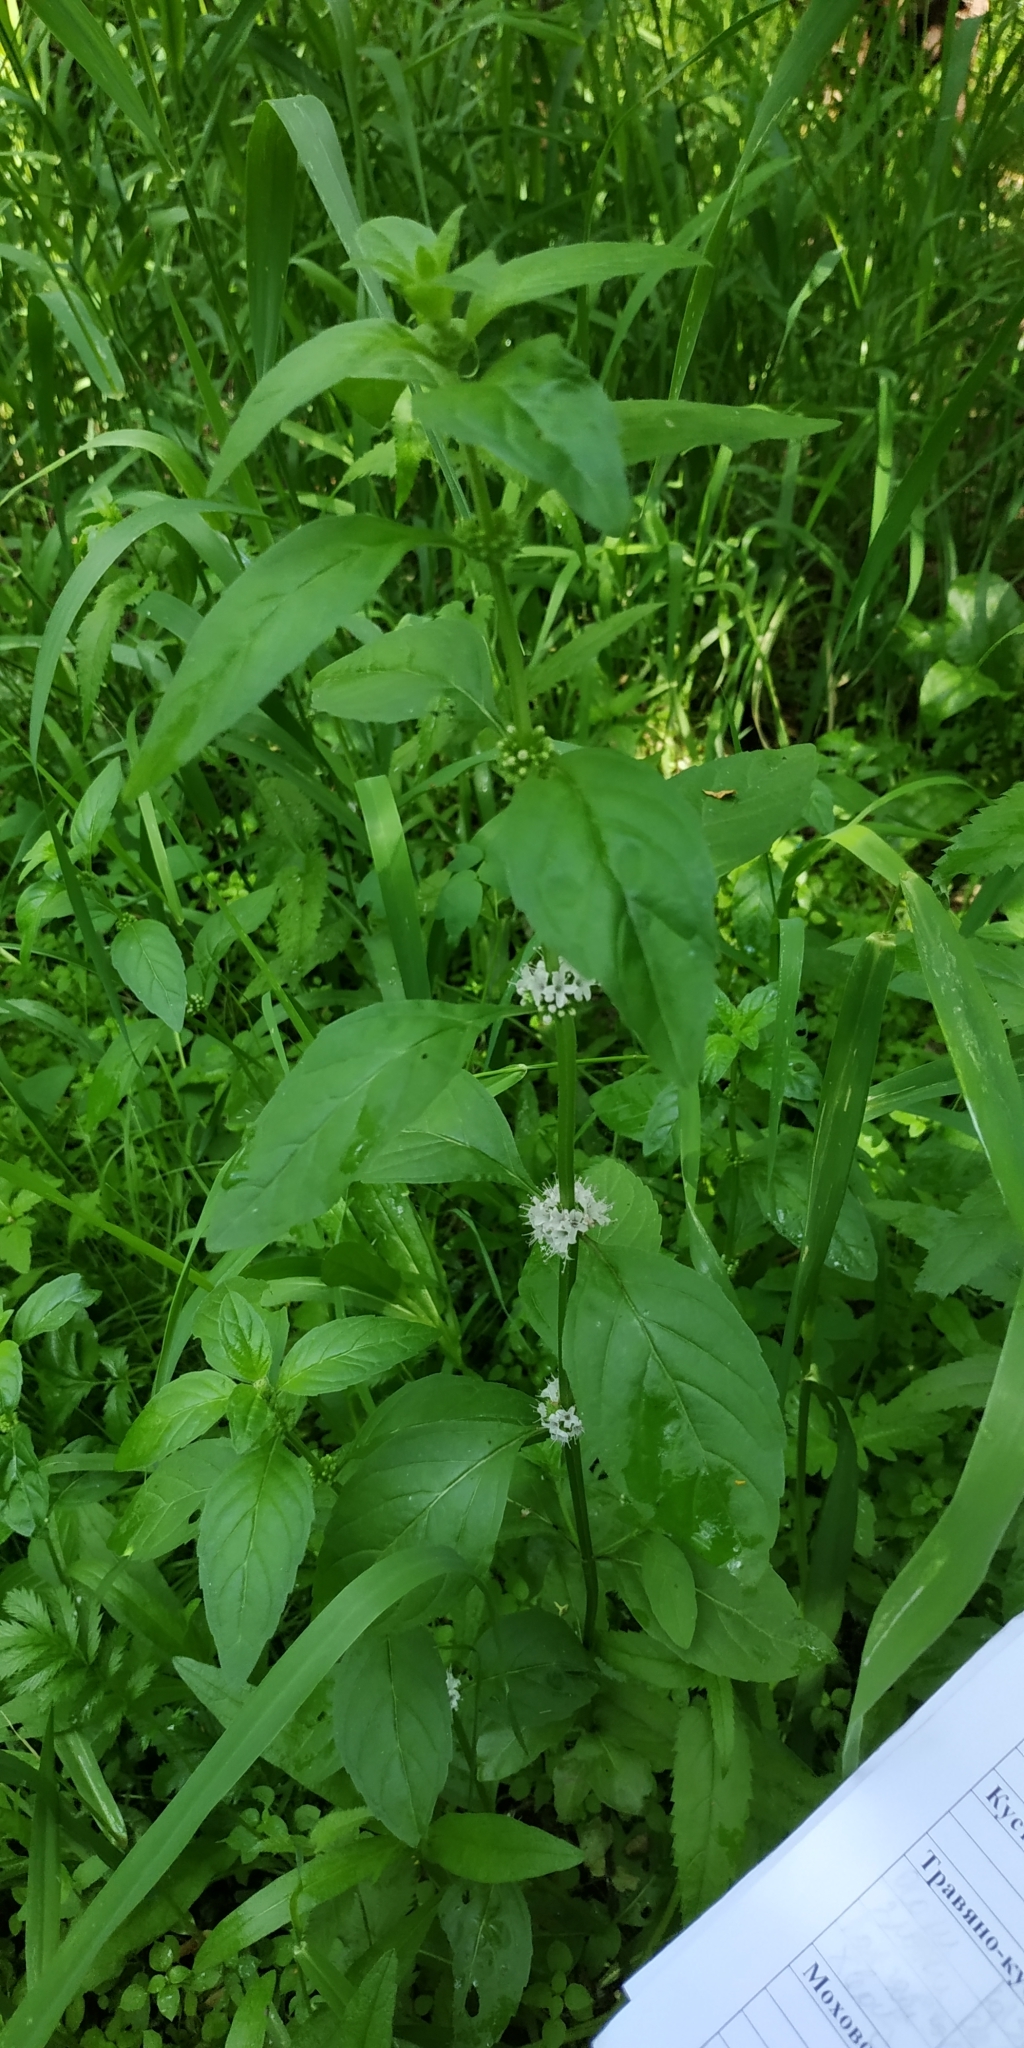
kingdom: Plantae
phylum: Tracheophyta
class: Magnoliopsida
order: Lamiales
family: Lamiaceae
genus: Mentha
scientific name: Mentha arvensis
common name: Corn mint
